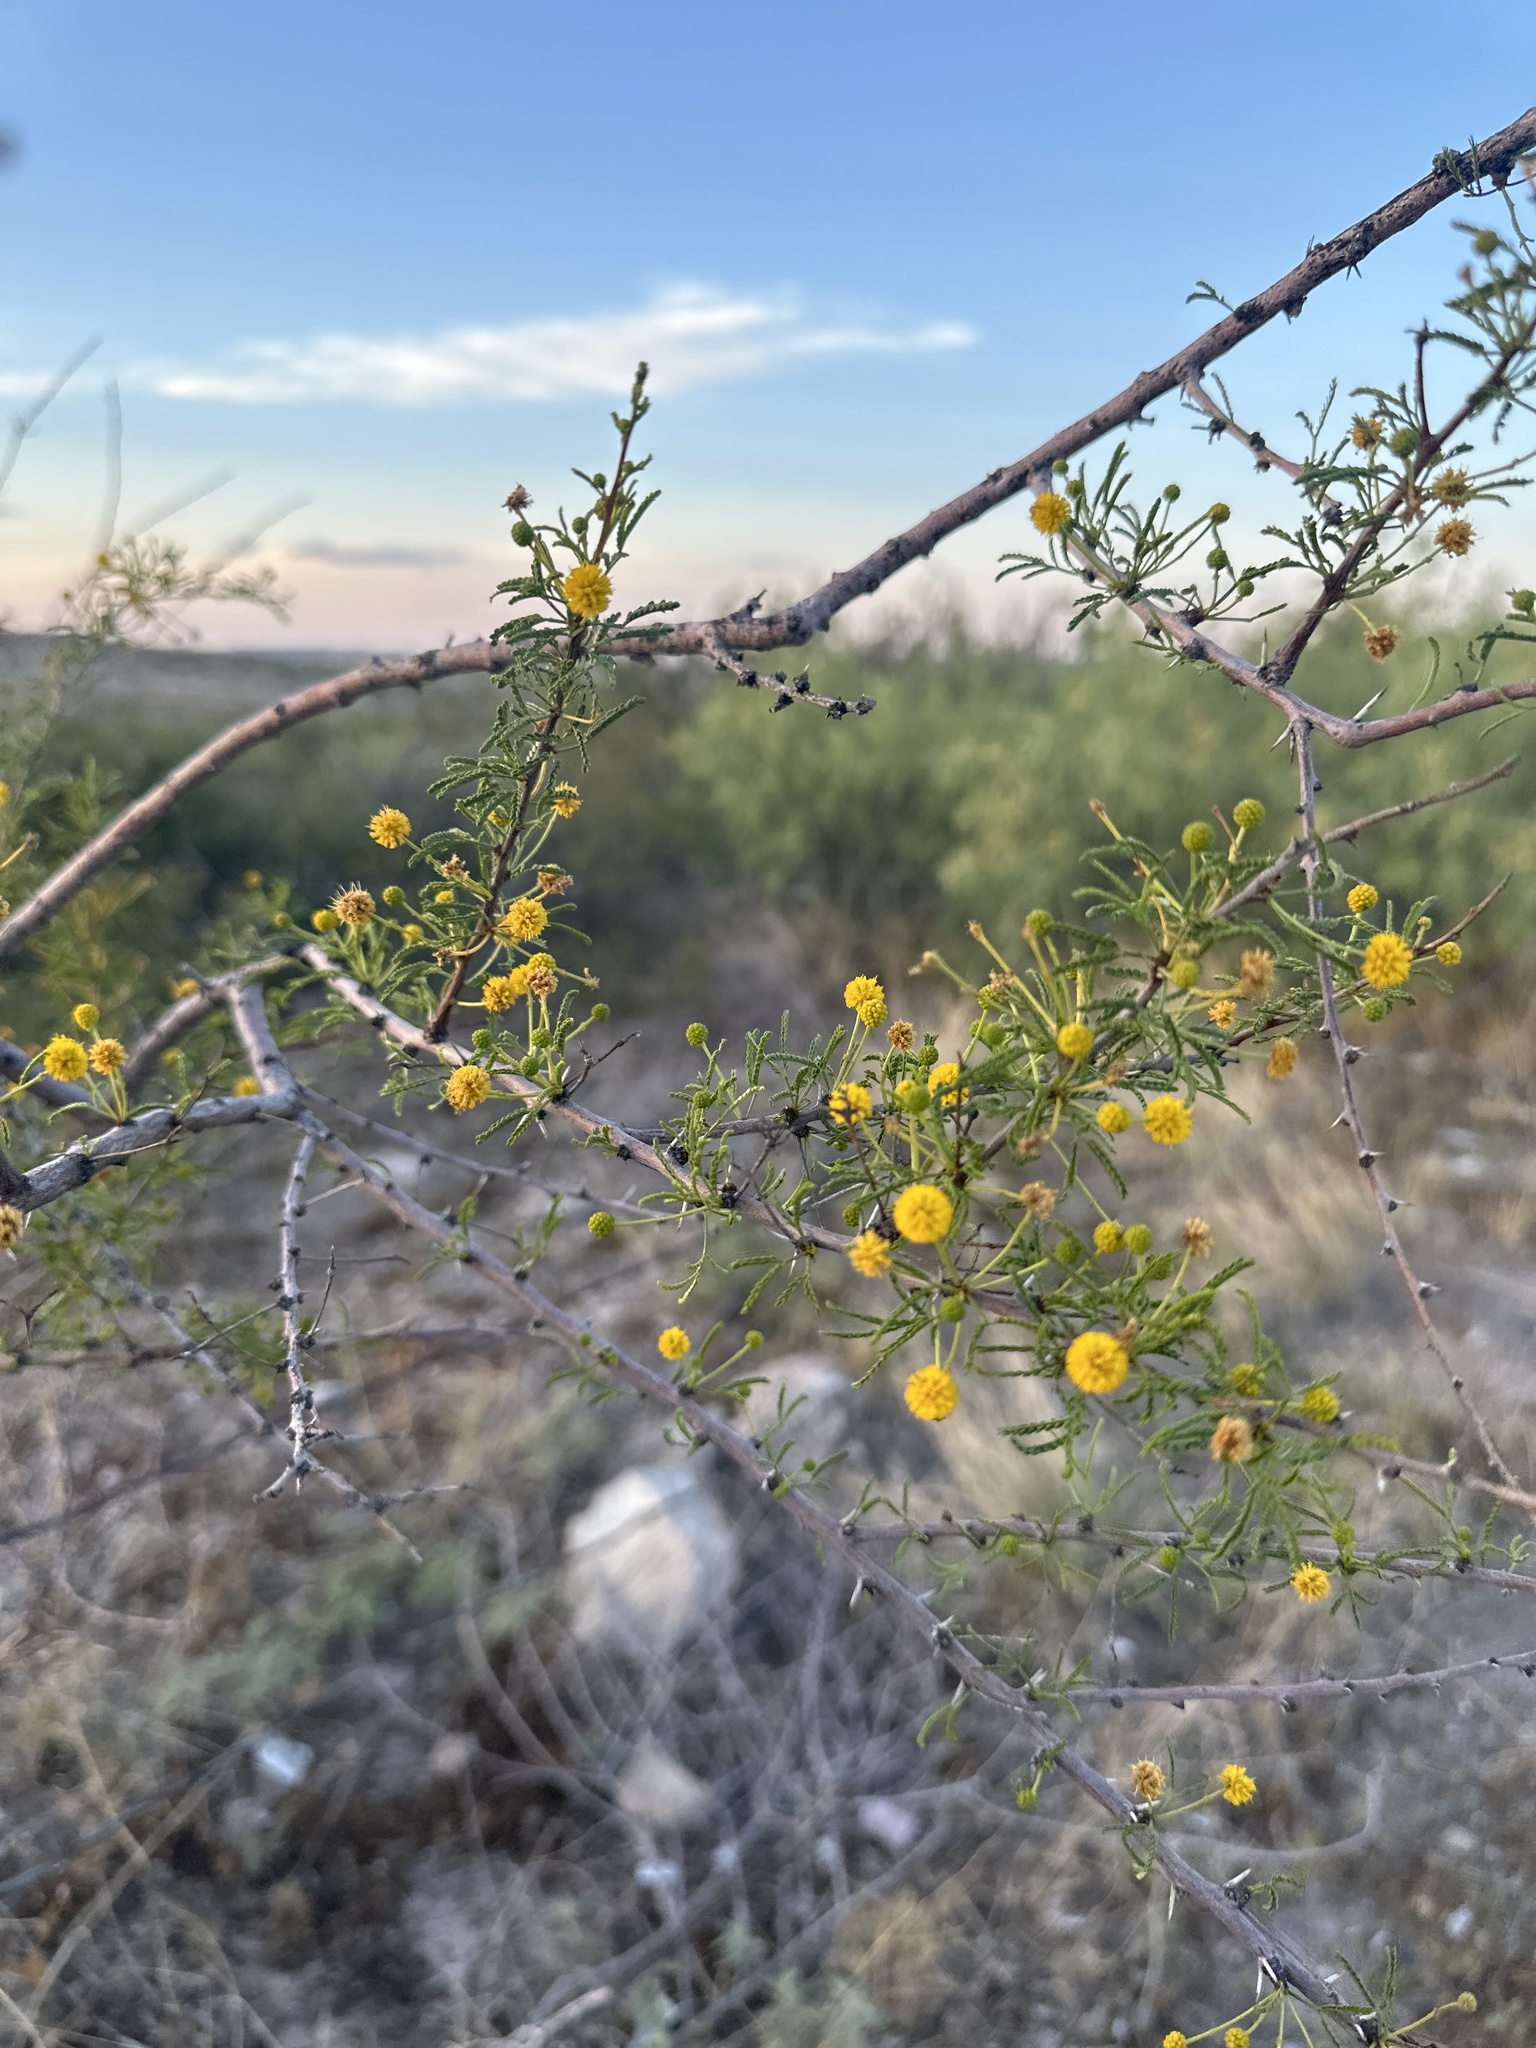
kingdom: Plantae
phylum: Tracheophyta
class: Magnoliopsida
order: Fabales
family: Fabaceae
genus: Vachellia
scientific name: Vachellia vernicosa
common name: Viscid acacia
